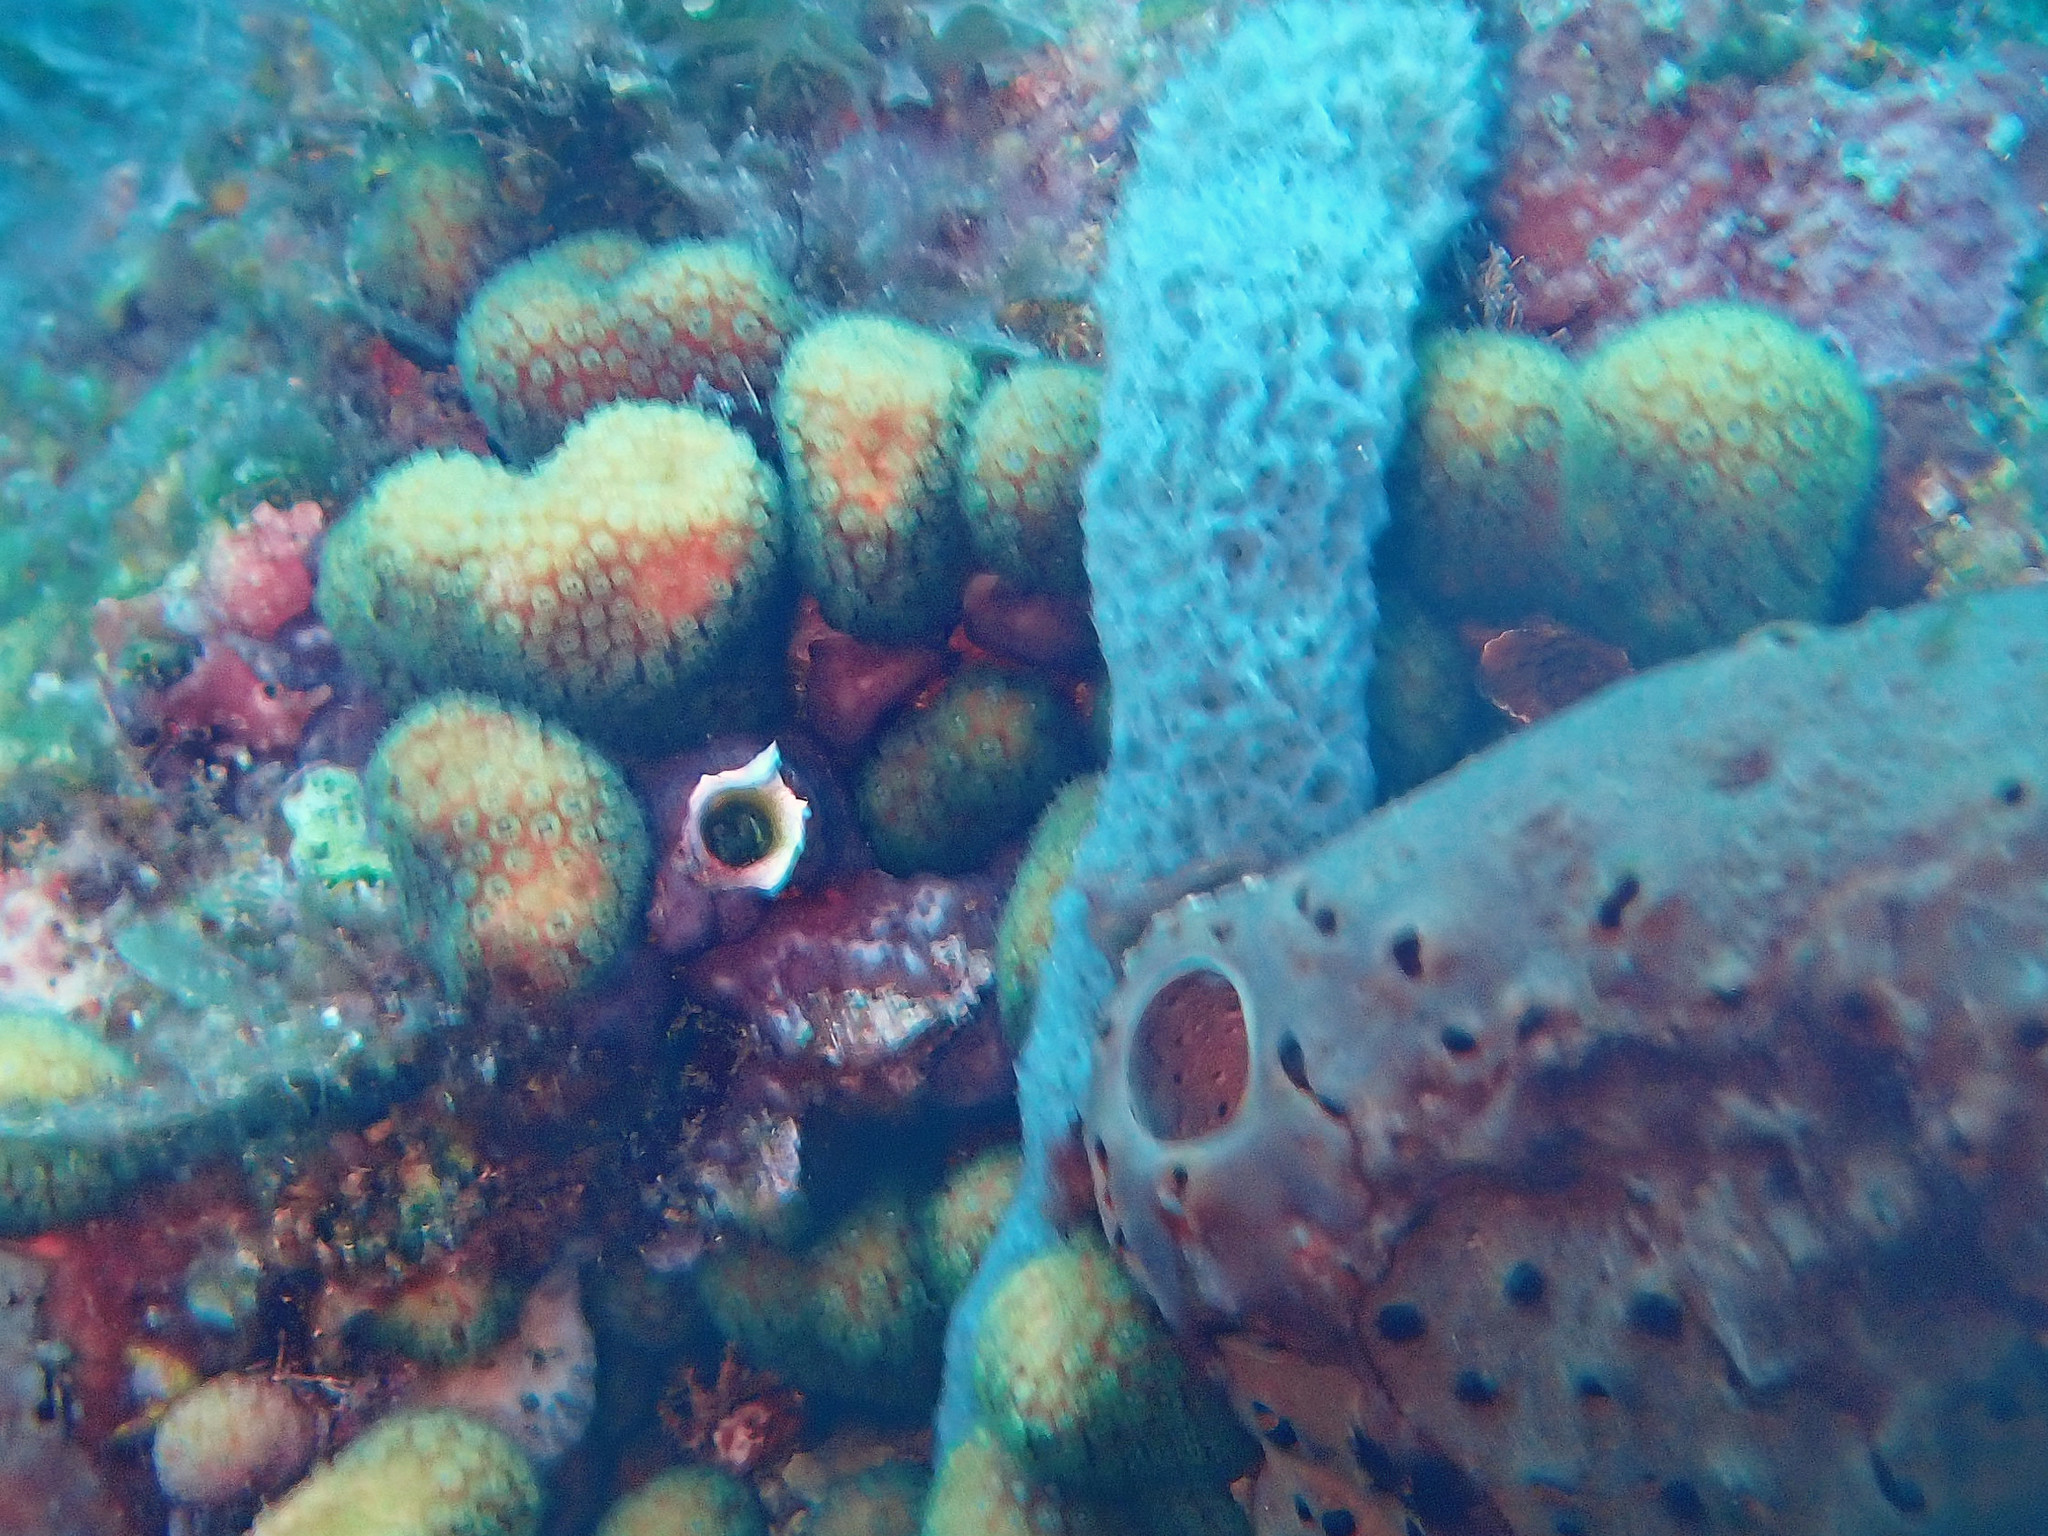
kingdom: Animalia
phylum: Cnidaria
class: Anthozoa
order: Scleractinia
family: Pocilloporidae
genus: Madracis
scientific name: Madracis decactis
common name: Ten-ray star coral
